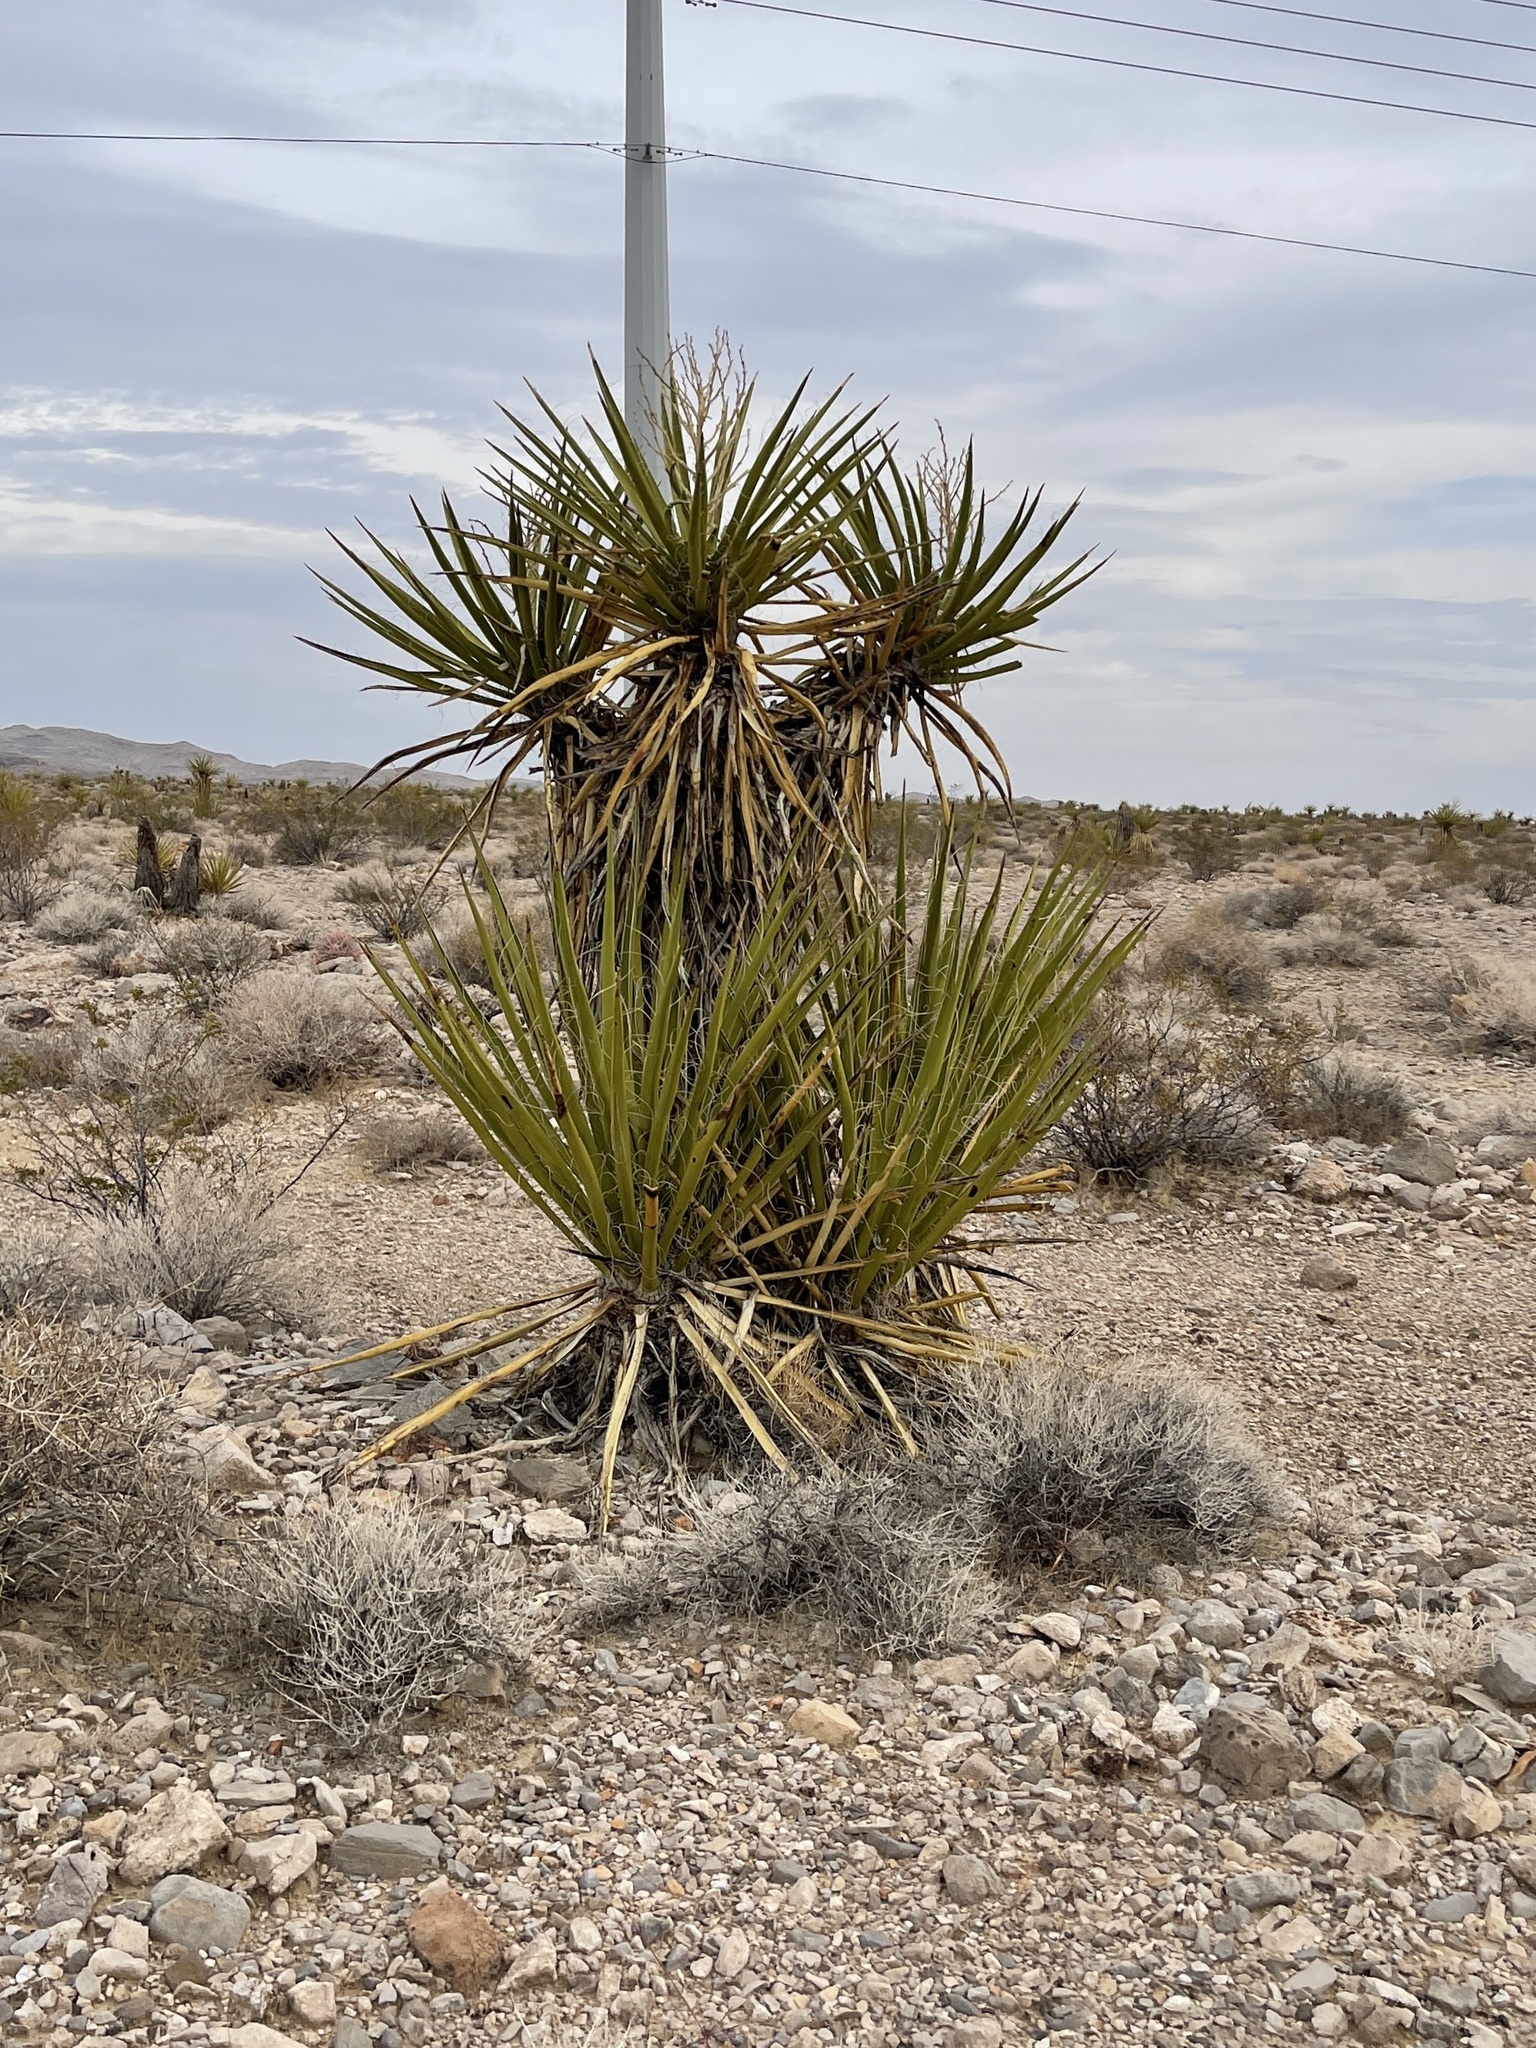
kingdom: Plantae
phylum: Tracheophyta
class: Liliopsida
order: Asparagales
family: Asparagaceae
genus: Yucca
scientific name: Yucca schidigera
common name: Mojave yucca
